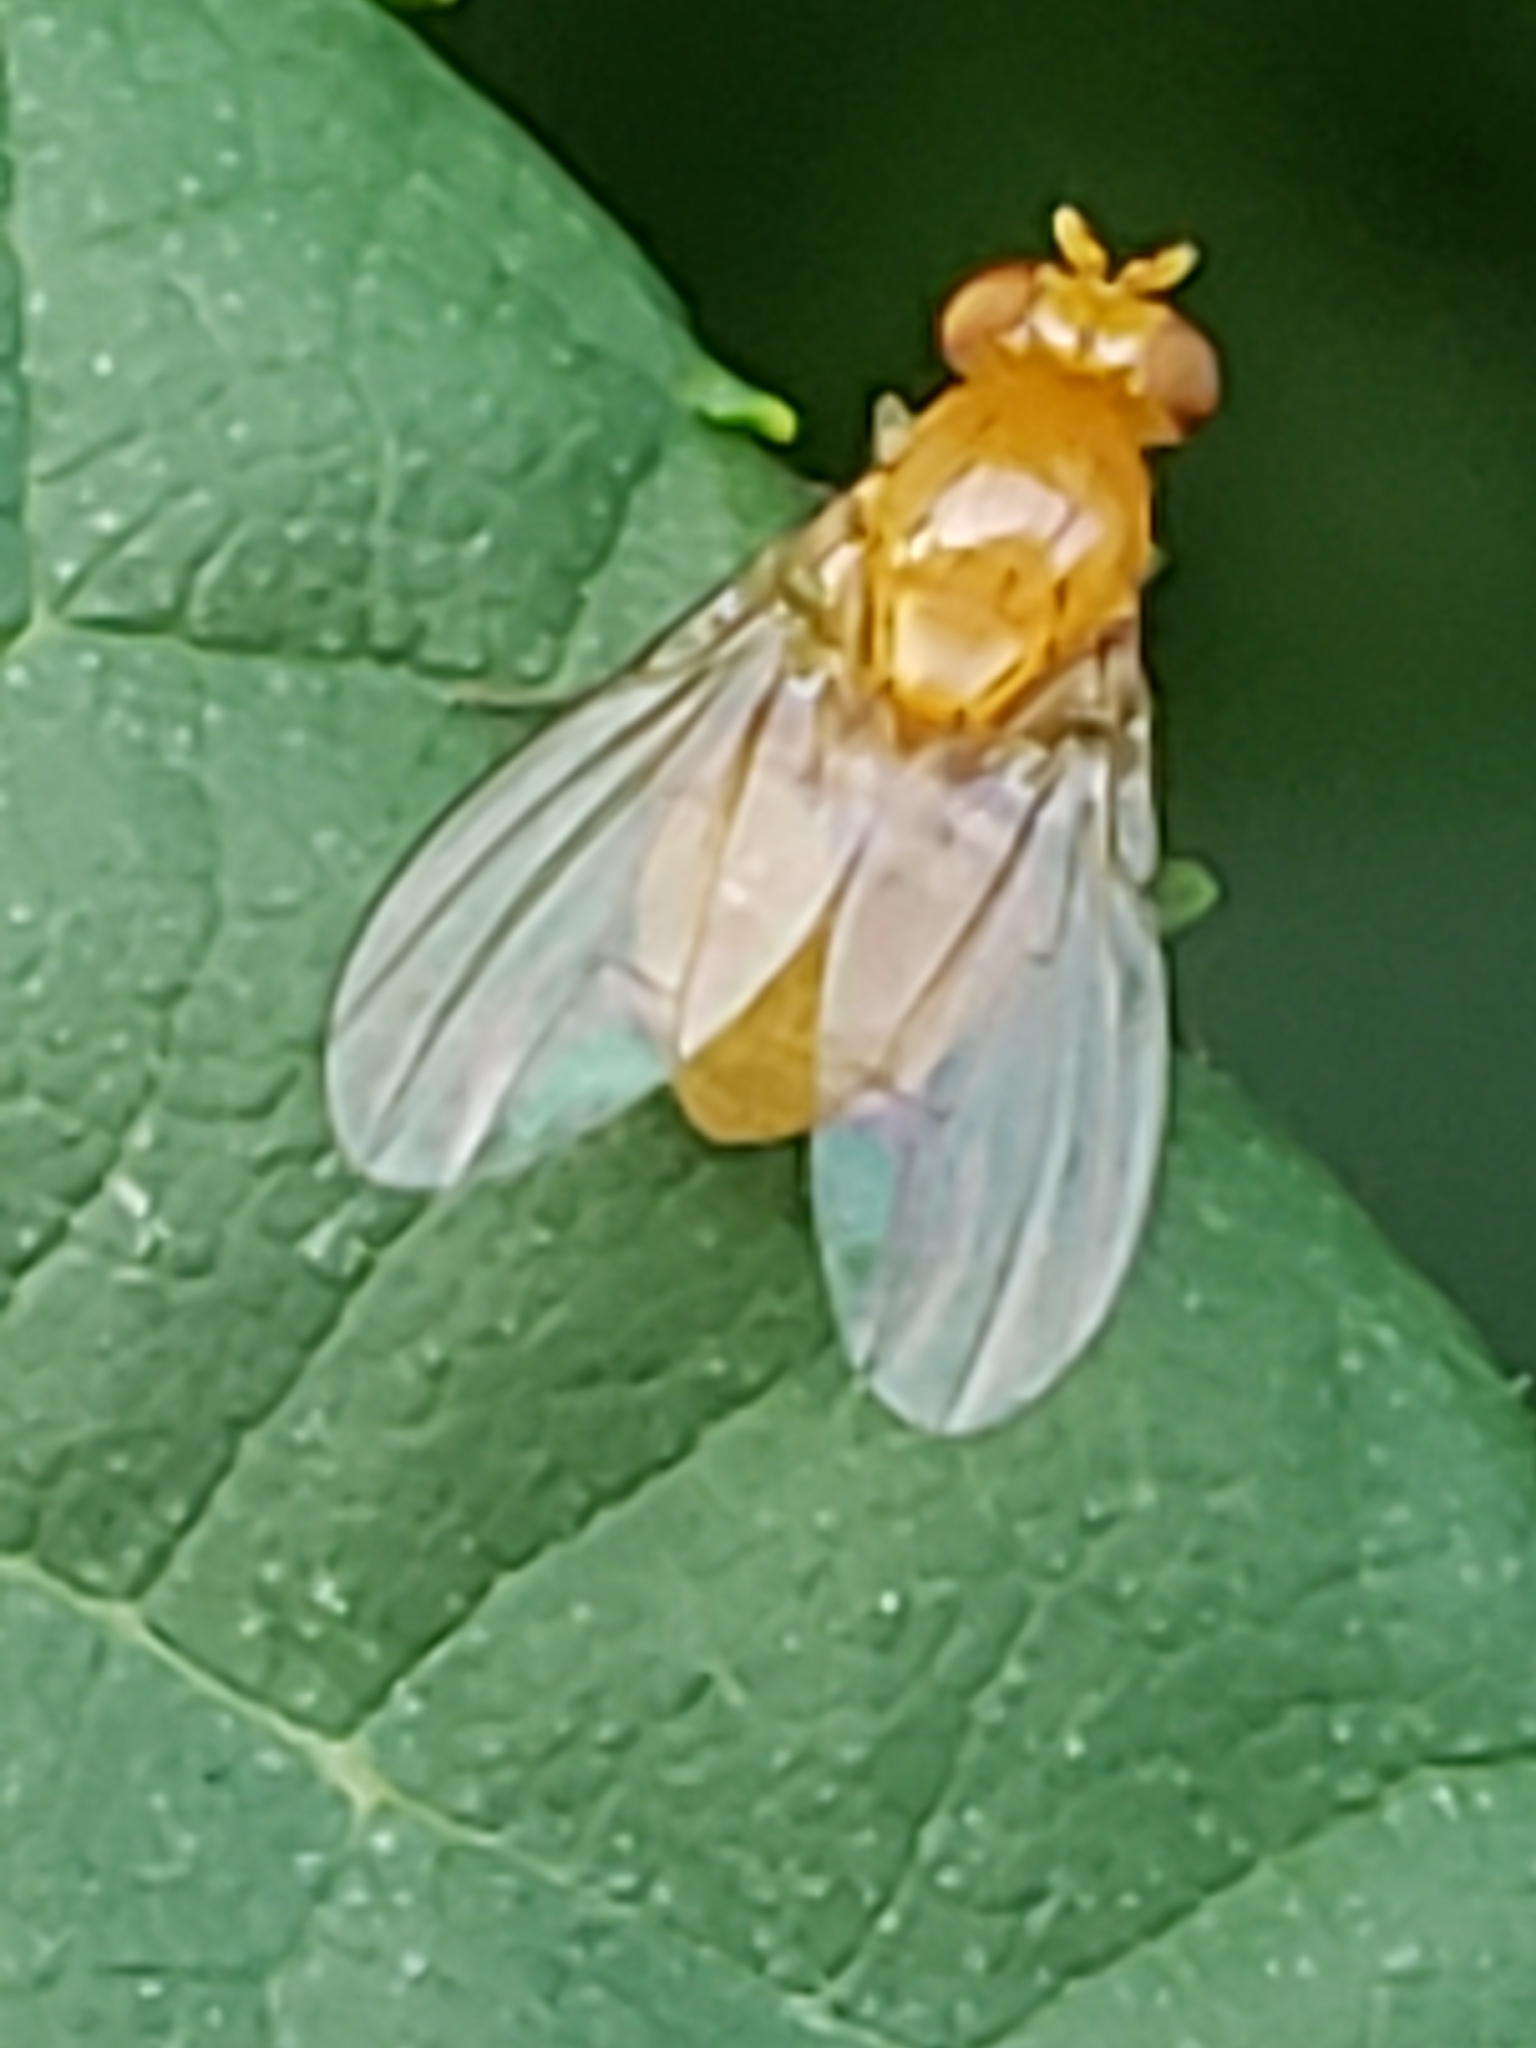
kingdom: Animalia
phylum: Arthropoda
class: Insecta
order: Diptera
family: Lauxaniidae
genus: Neogriphoneura
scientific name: Neogriphoneura sordida
